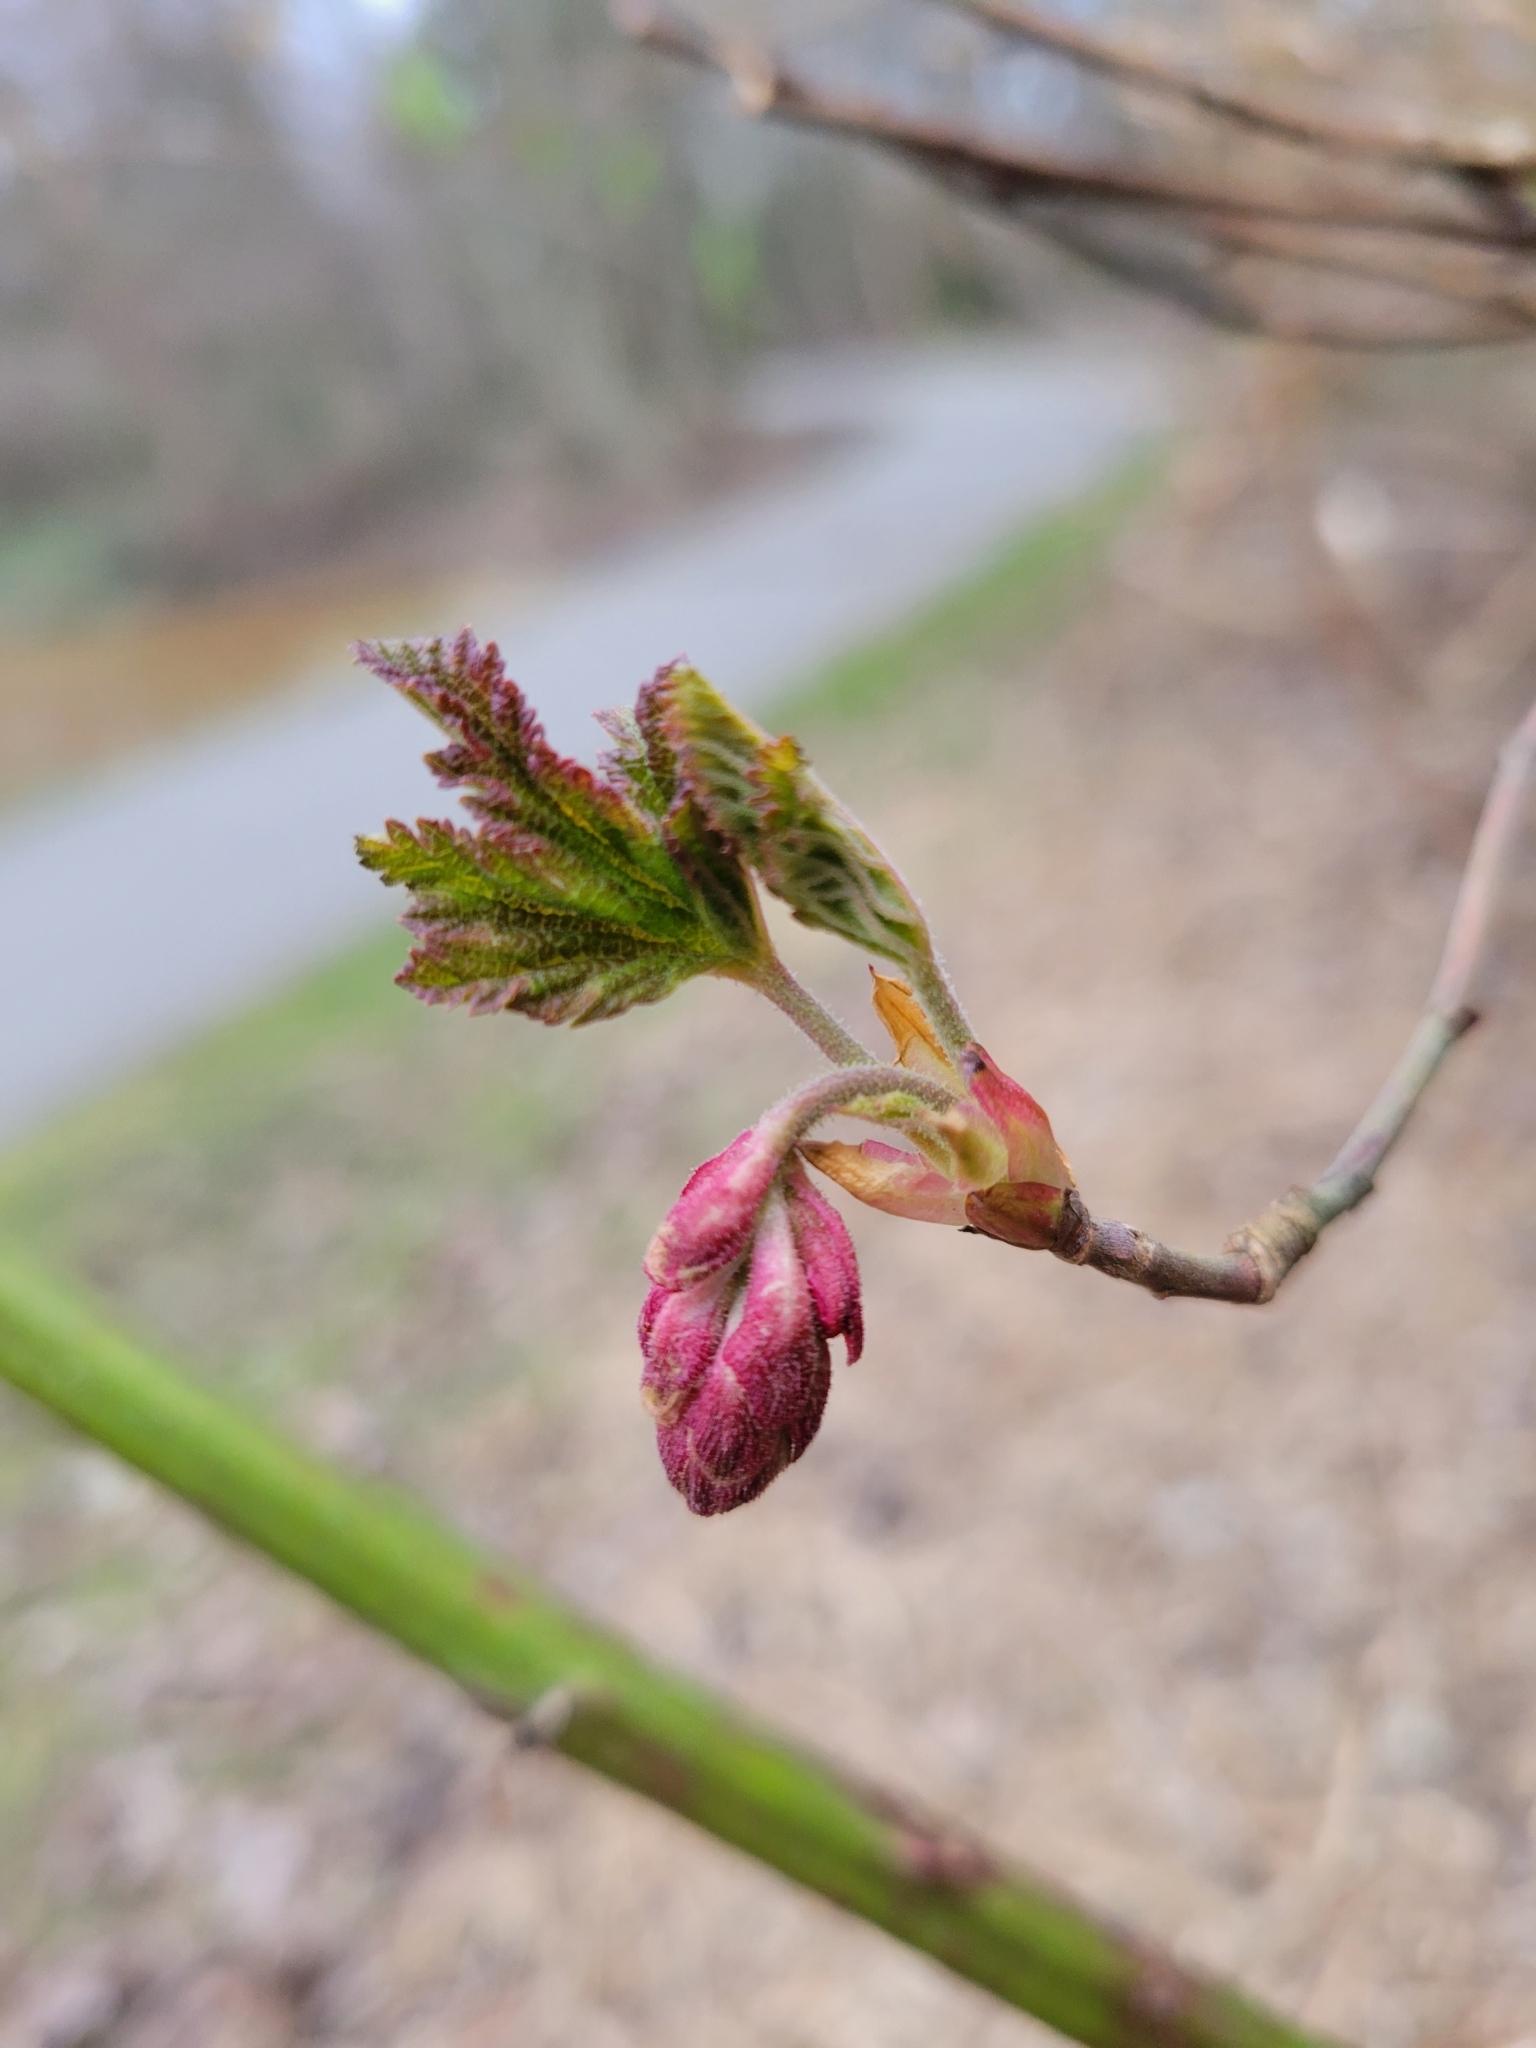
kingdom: Plantae
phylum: Tracheophyta
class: Magnoliopsida
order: Saxifragales
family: Grossulariaceae
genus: Ribes
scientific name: Ribes sanguineum
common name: Flowering currant
